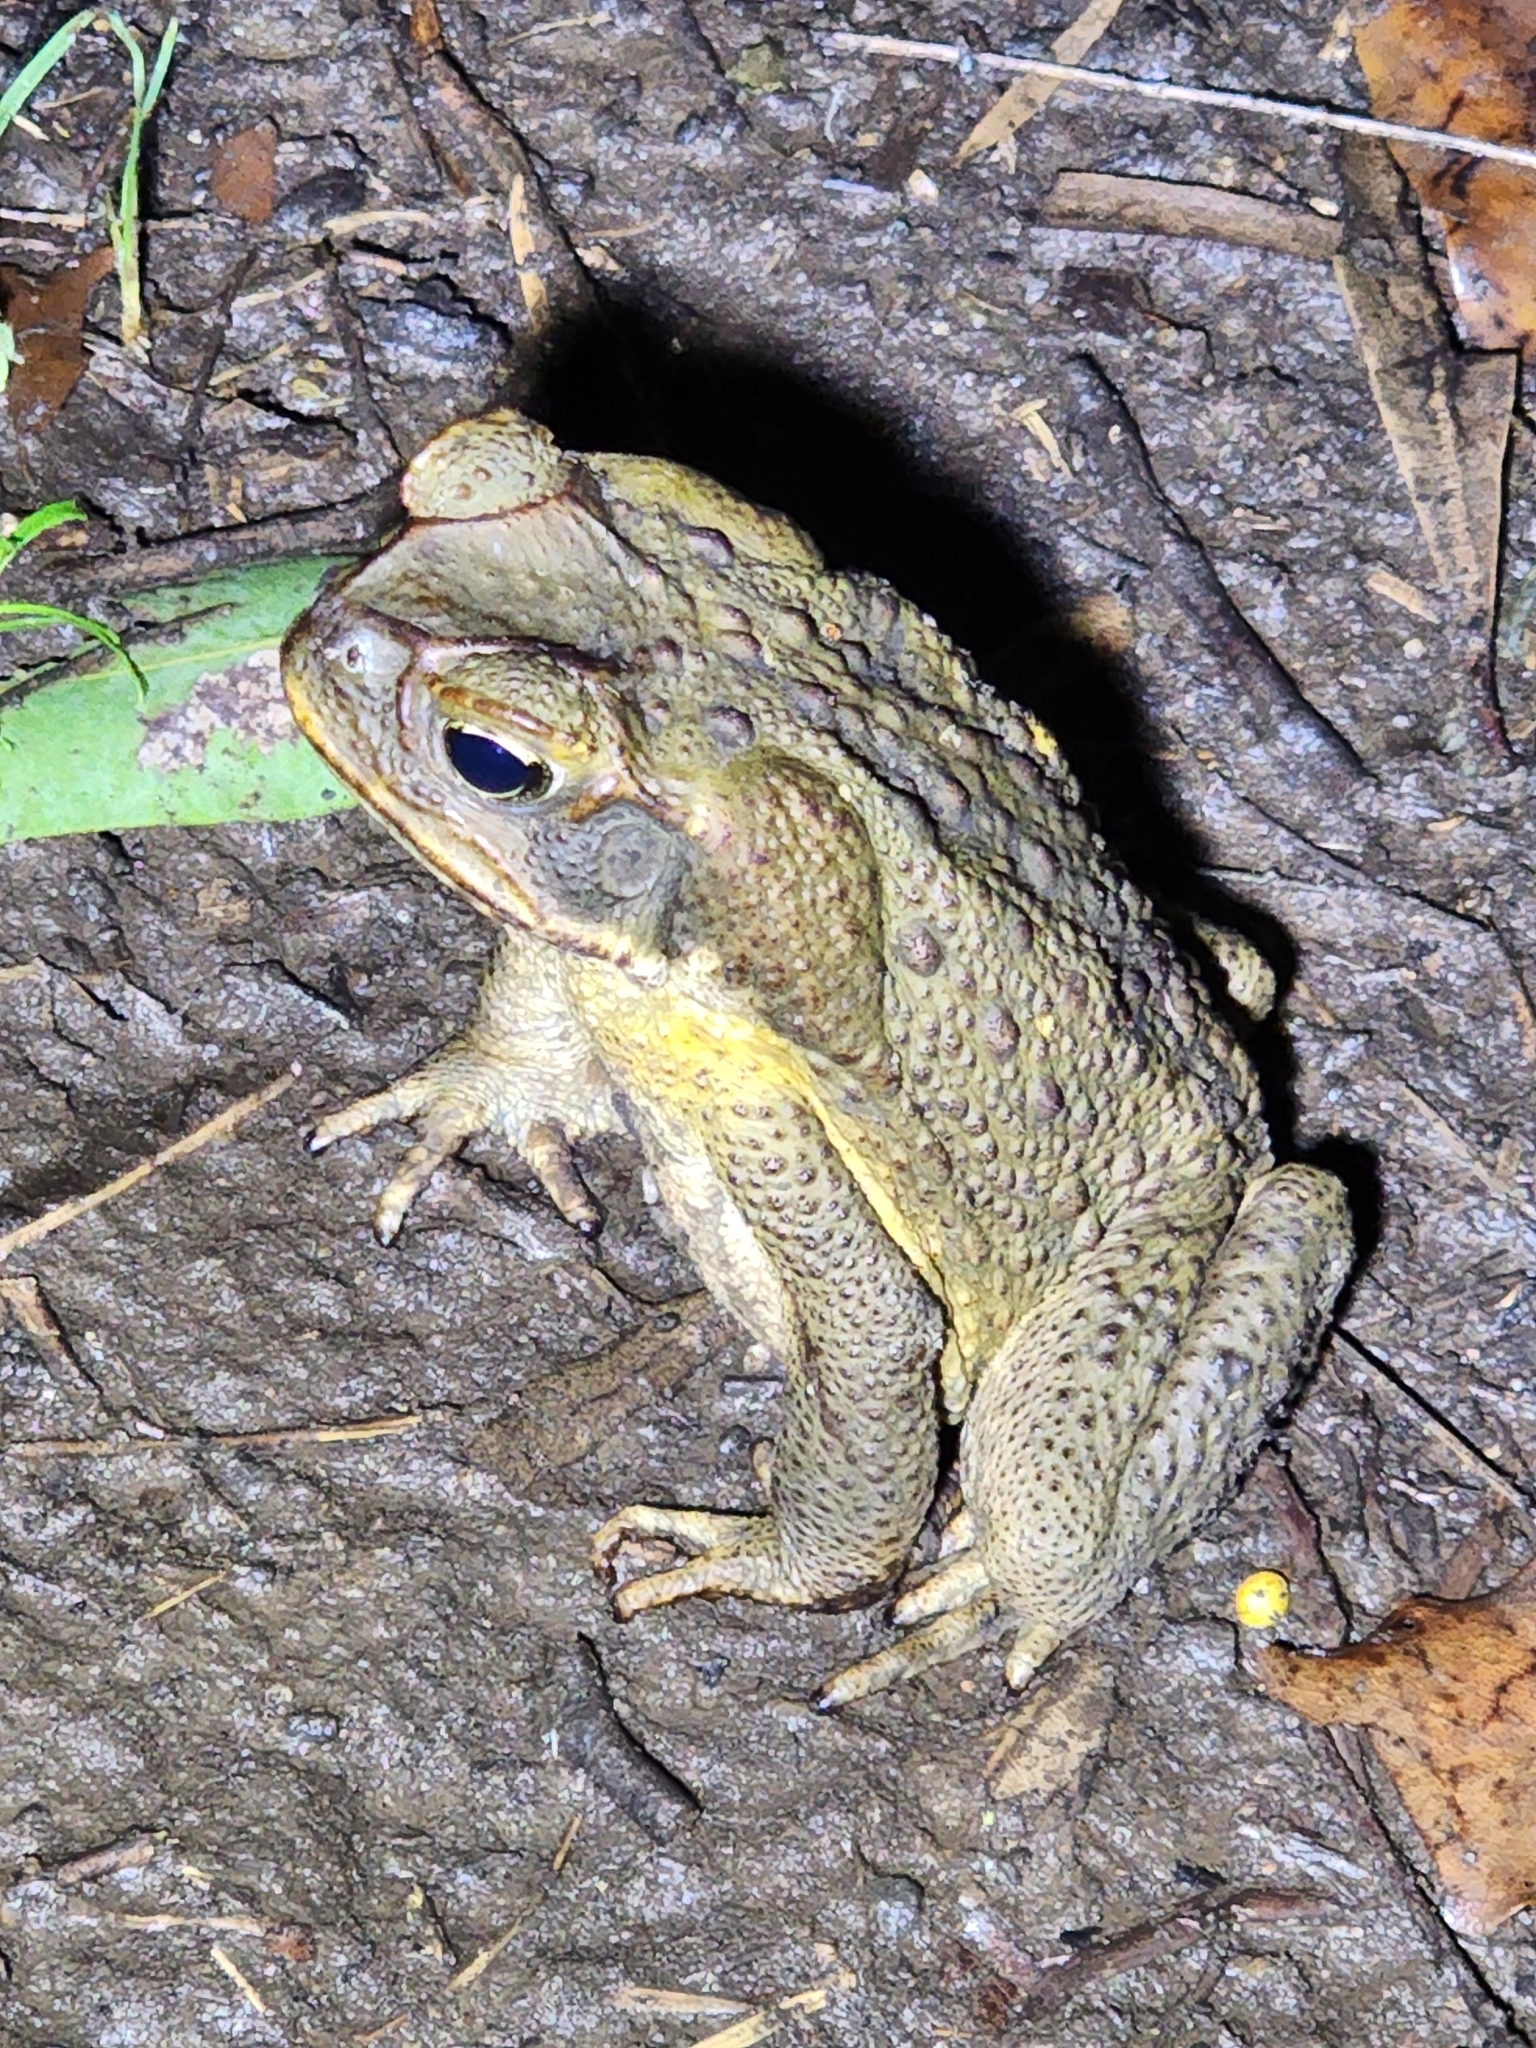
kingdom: Animalia
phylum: Chordata
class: Amphibia
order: Anura
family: Bufonidae
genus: Rhinella
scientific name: Rhinella marina
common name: Cane toad
